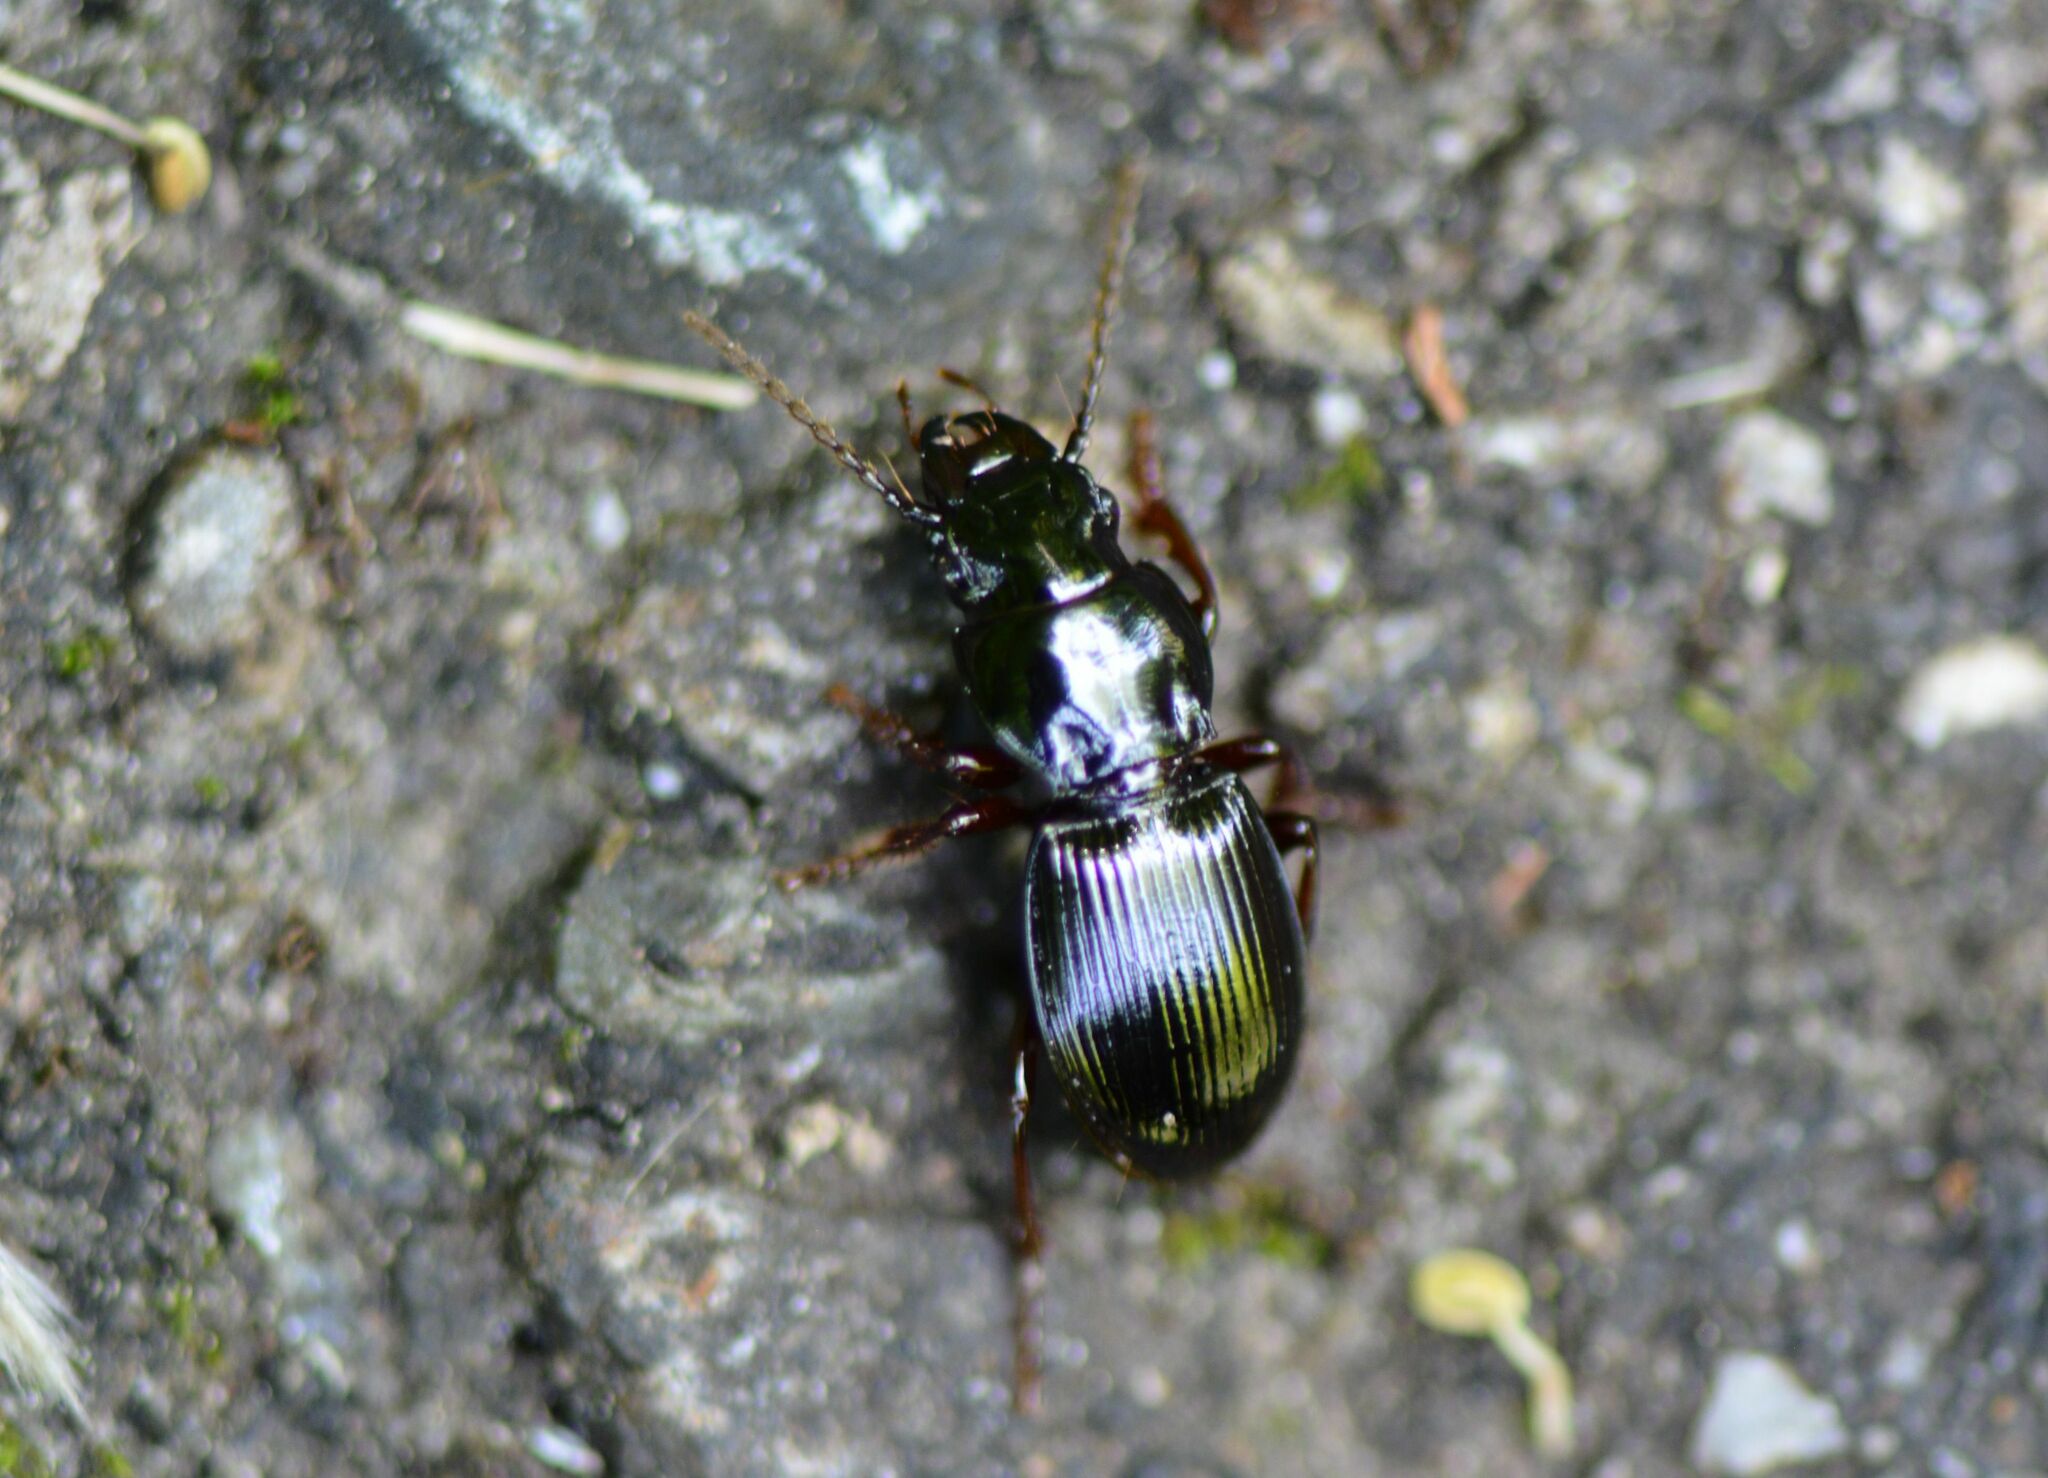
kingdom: Animalia
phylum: Arthropoda
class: Insecta
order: Coleoptera
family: Carabidae
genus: Molops
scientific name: Molops piceus
